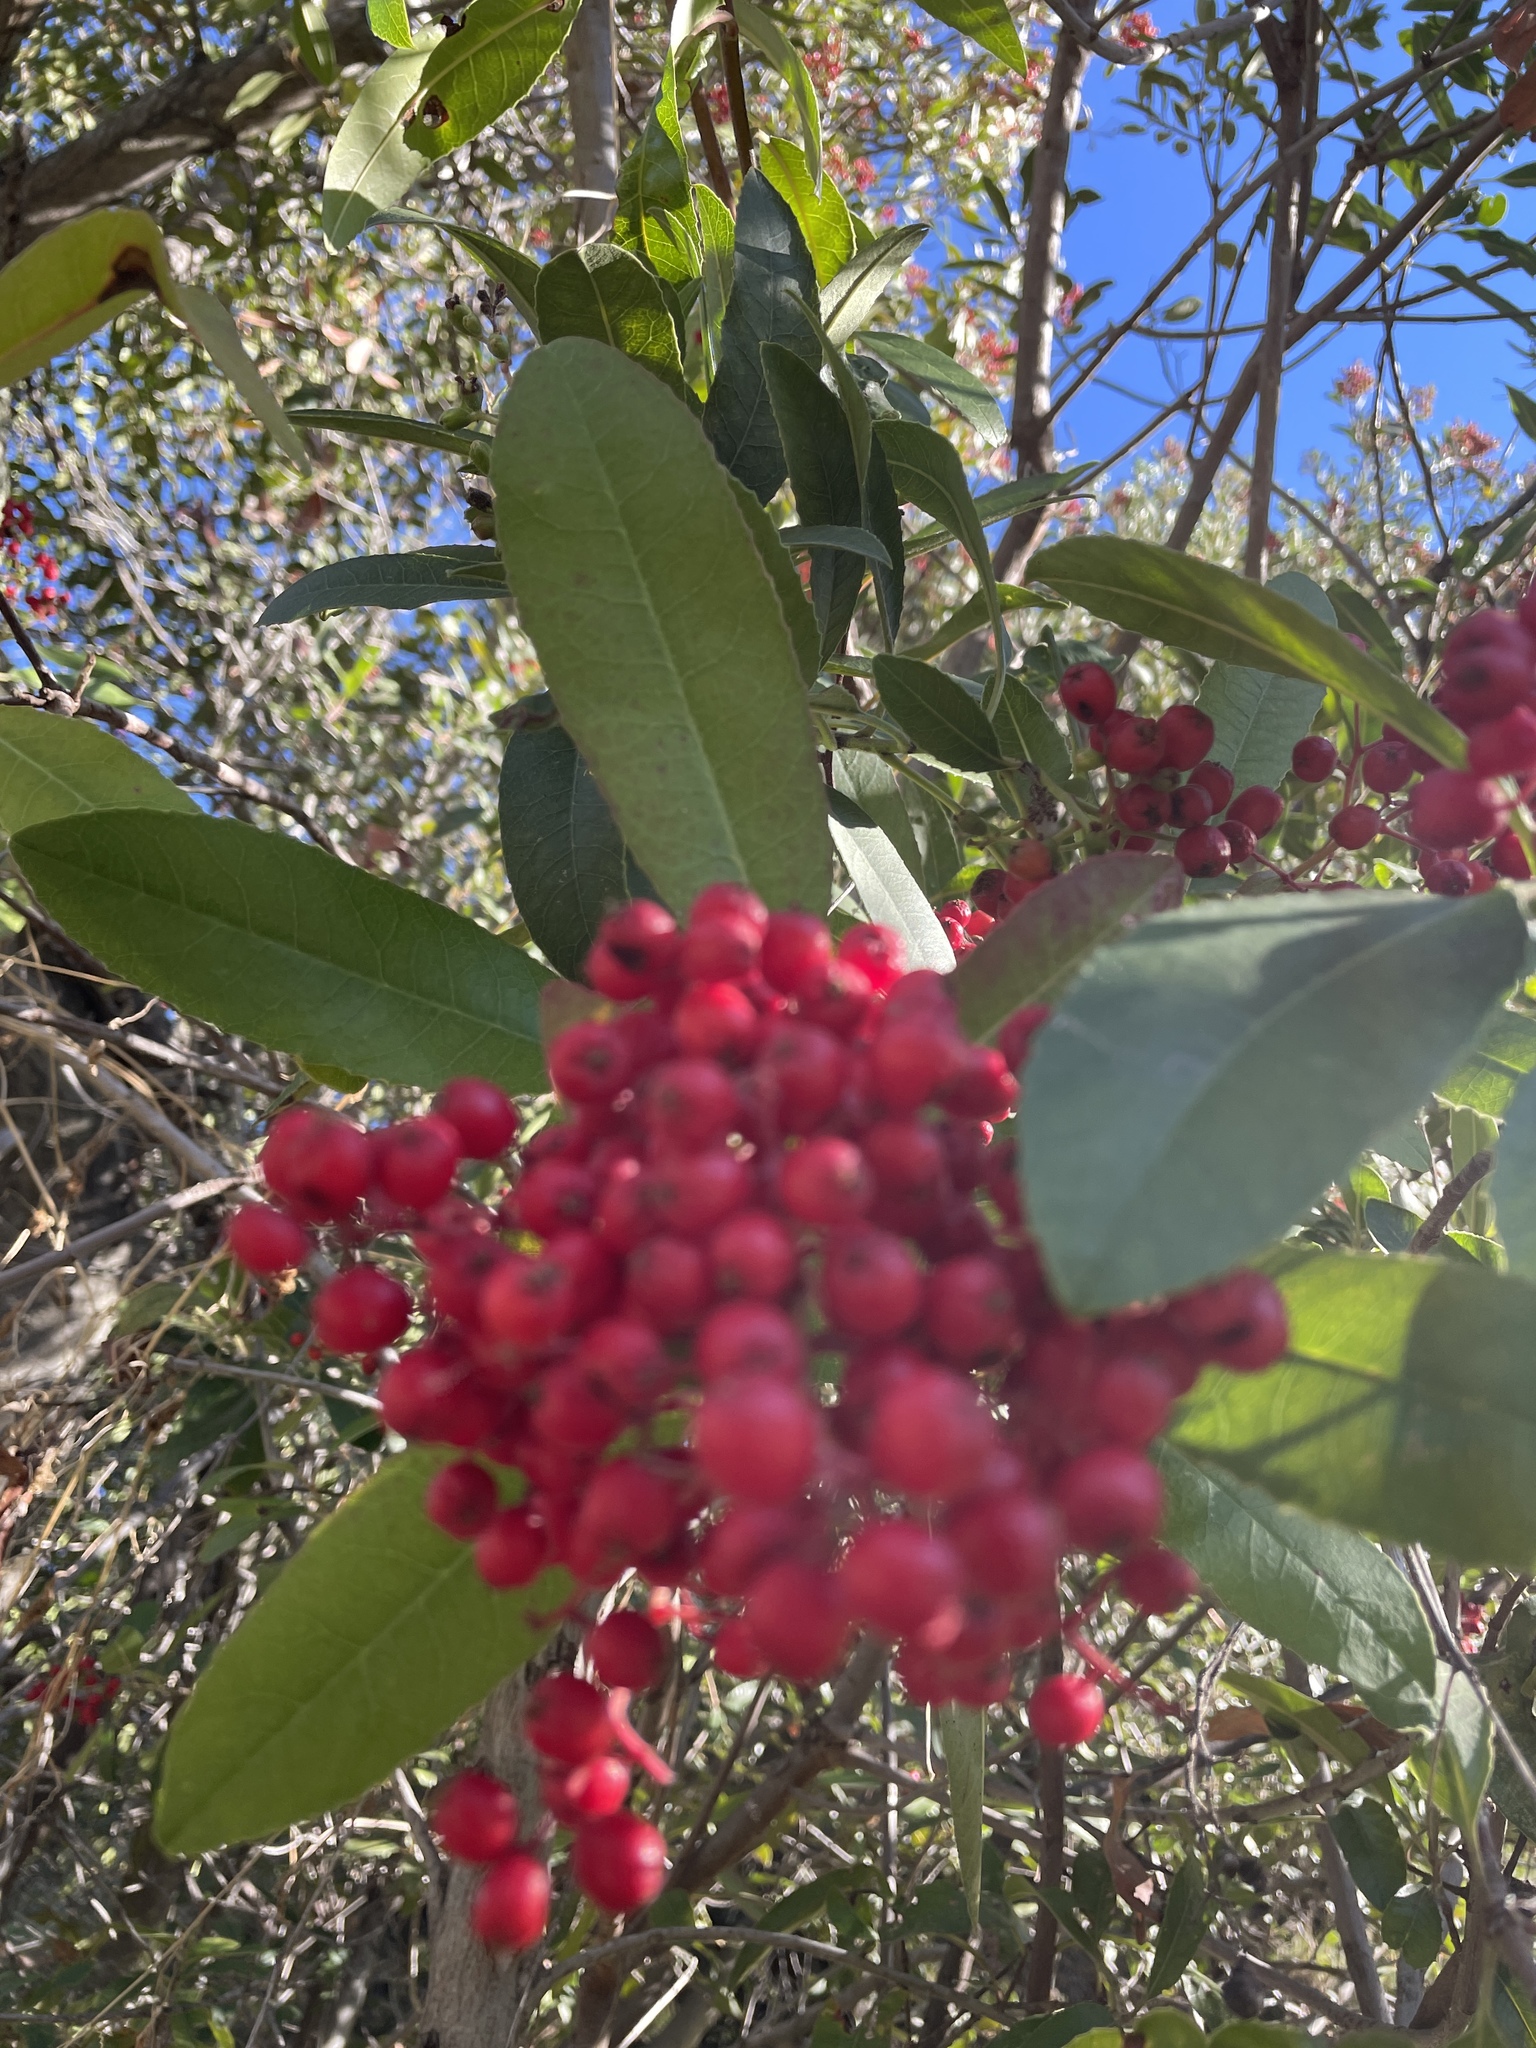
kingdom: Plantae
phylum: Tracheophyta
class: Magnoliopsida
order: Rosales
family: Rosaceae
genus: Heteromeles
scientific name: Heteromeles arbutifolia
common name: California-holly
